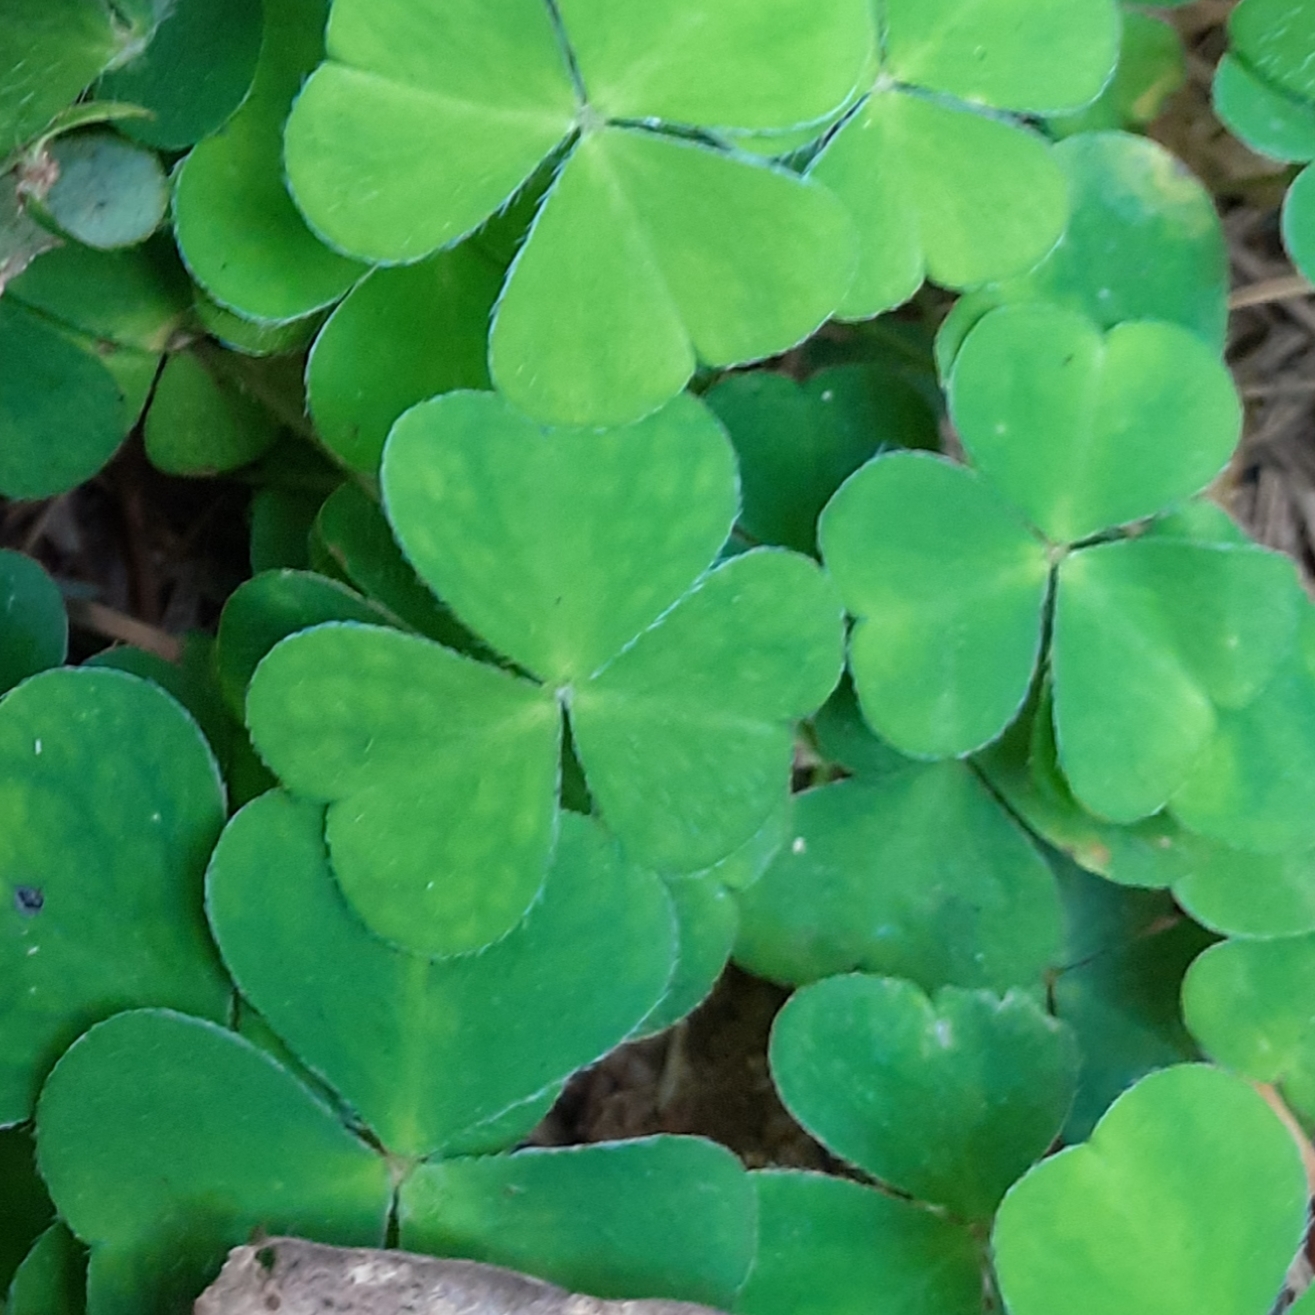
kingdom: Plantae
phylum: Tracheophyta
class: Magnoliopsida
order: Oxalidales
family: Oxalidaceae
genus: Oxalis
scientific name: Oxalis acetosella
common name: Wood-sorrel
